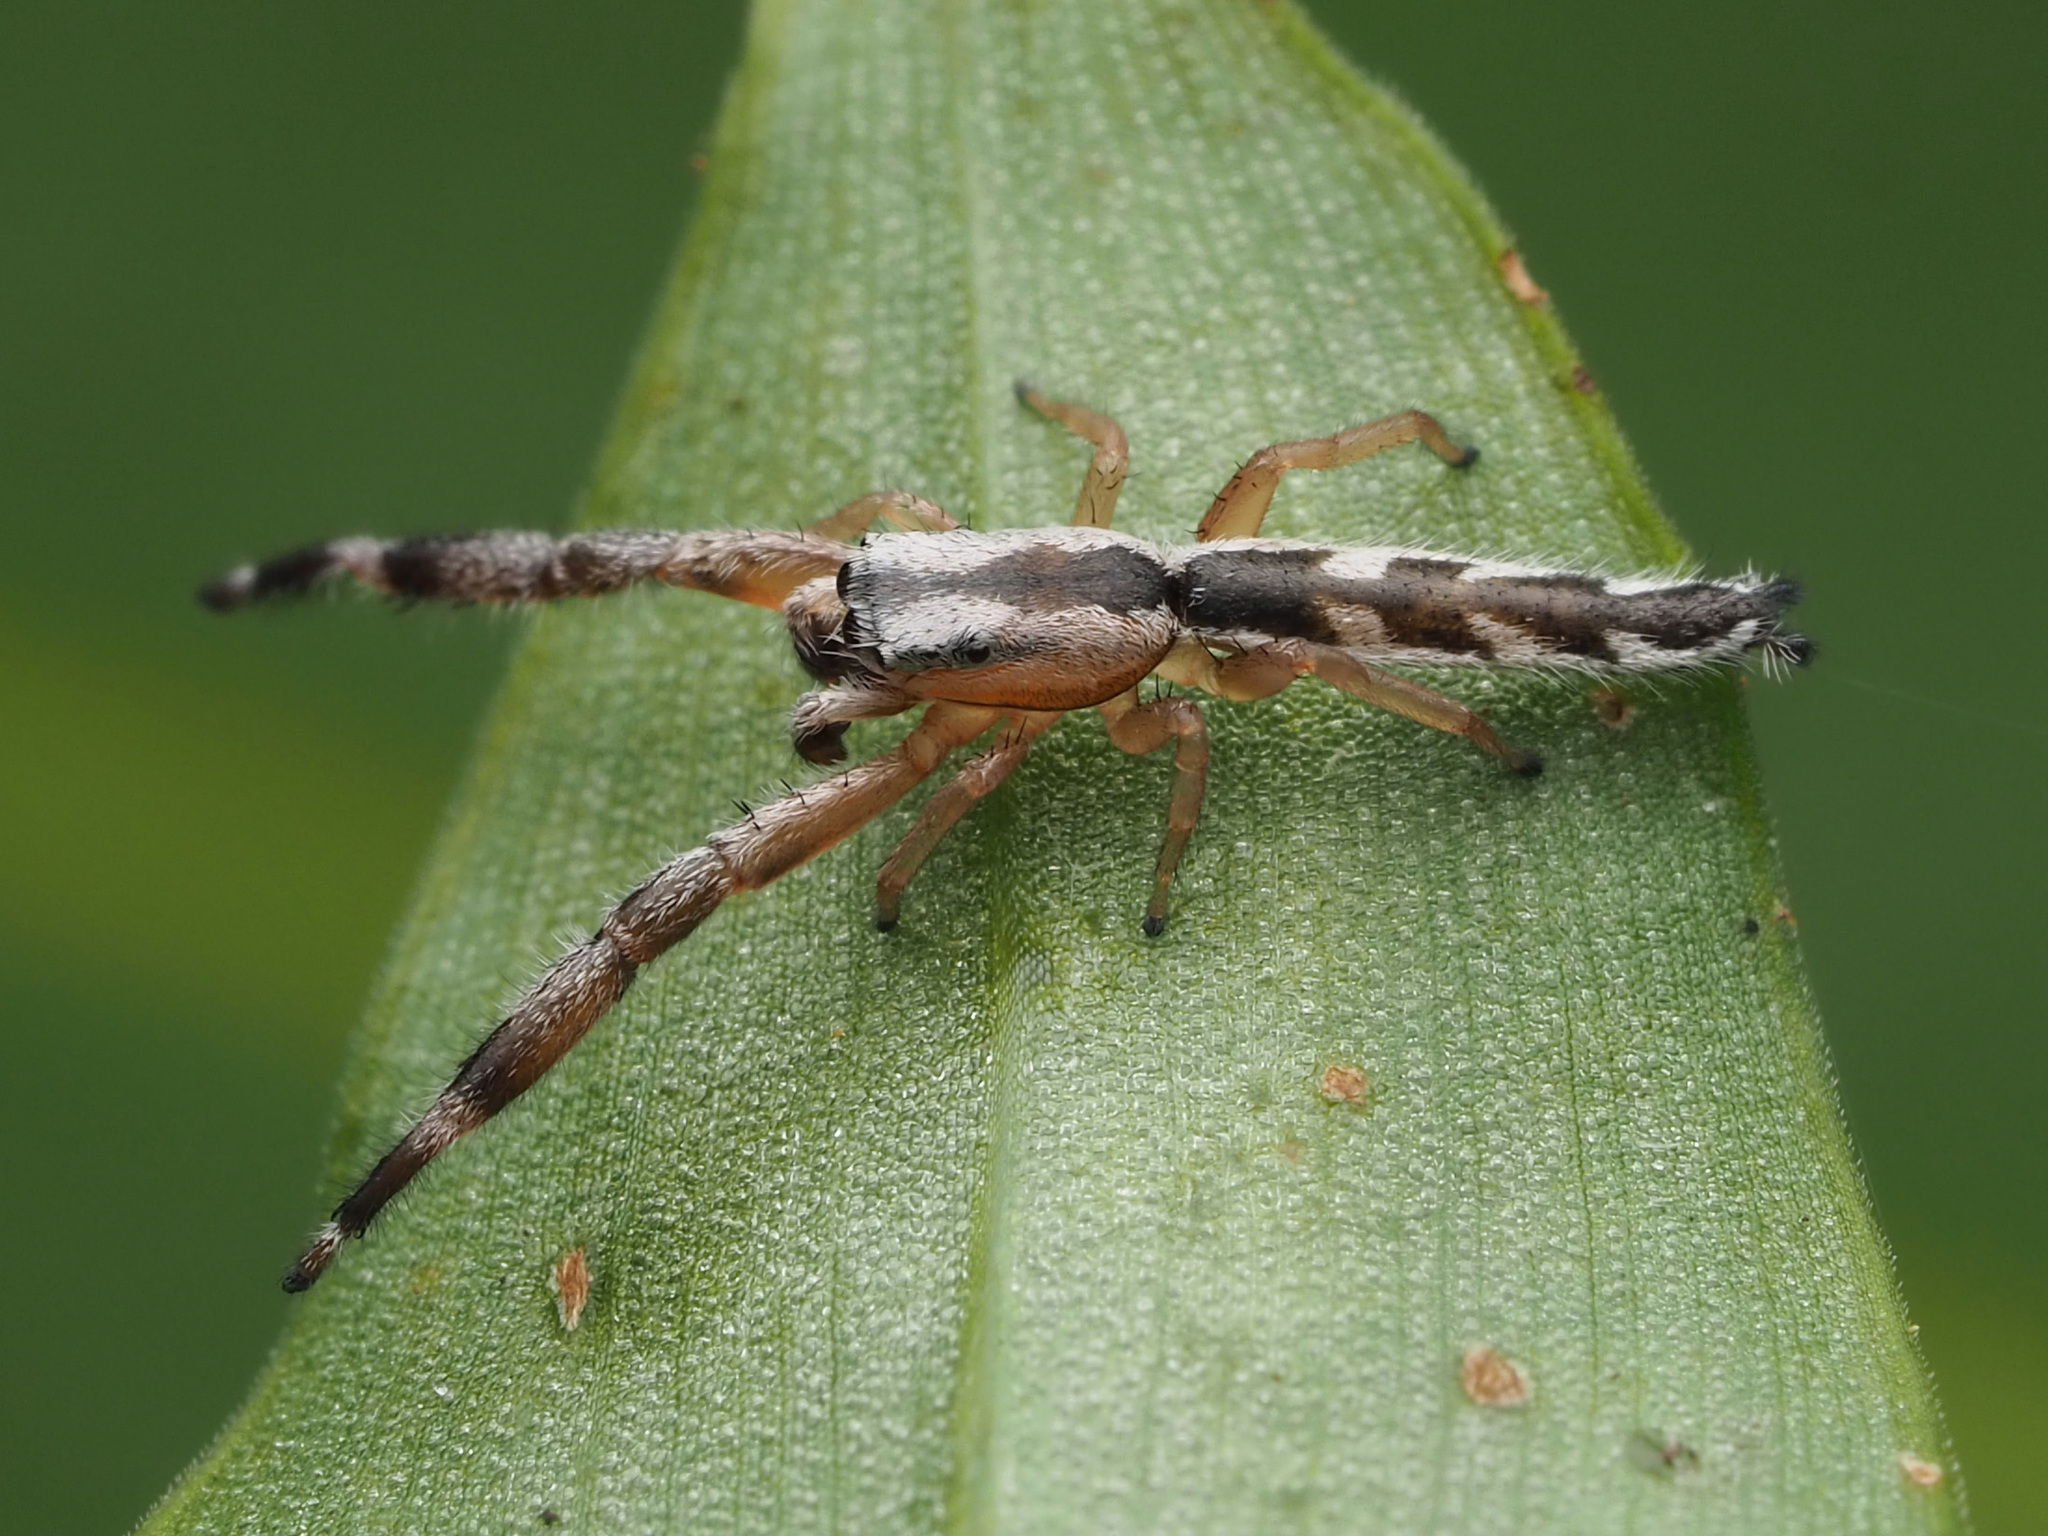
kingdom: Animalia
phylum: Arthropoda
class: Arachnida
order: Araneae
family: Salticidae
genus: Marpissa
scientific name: Marpissa pikei
